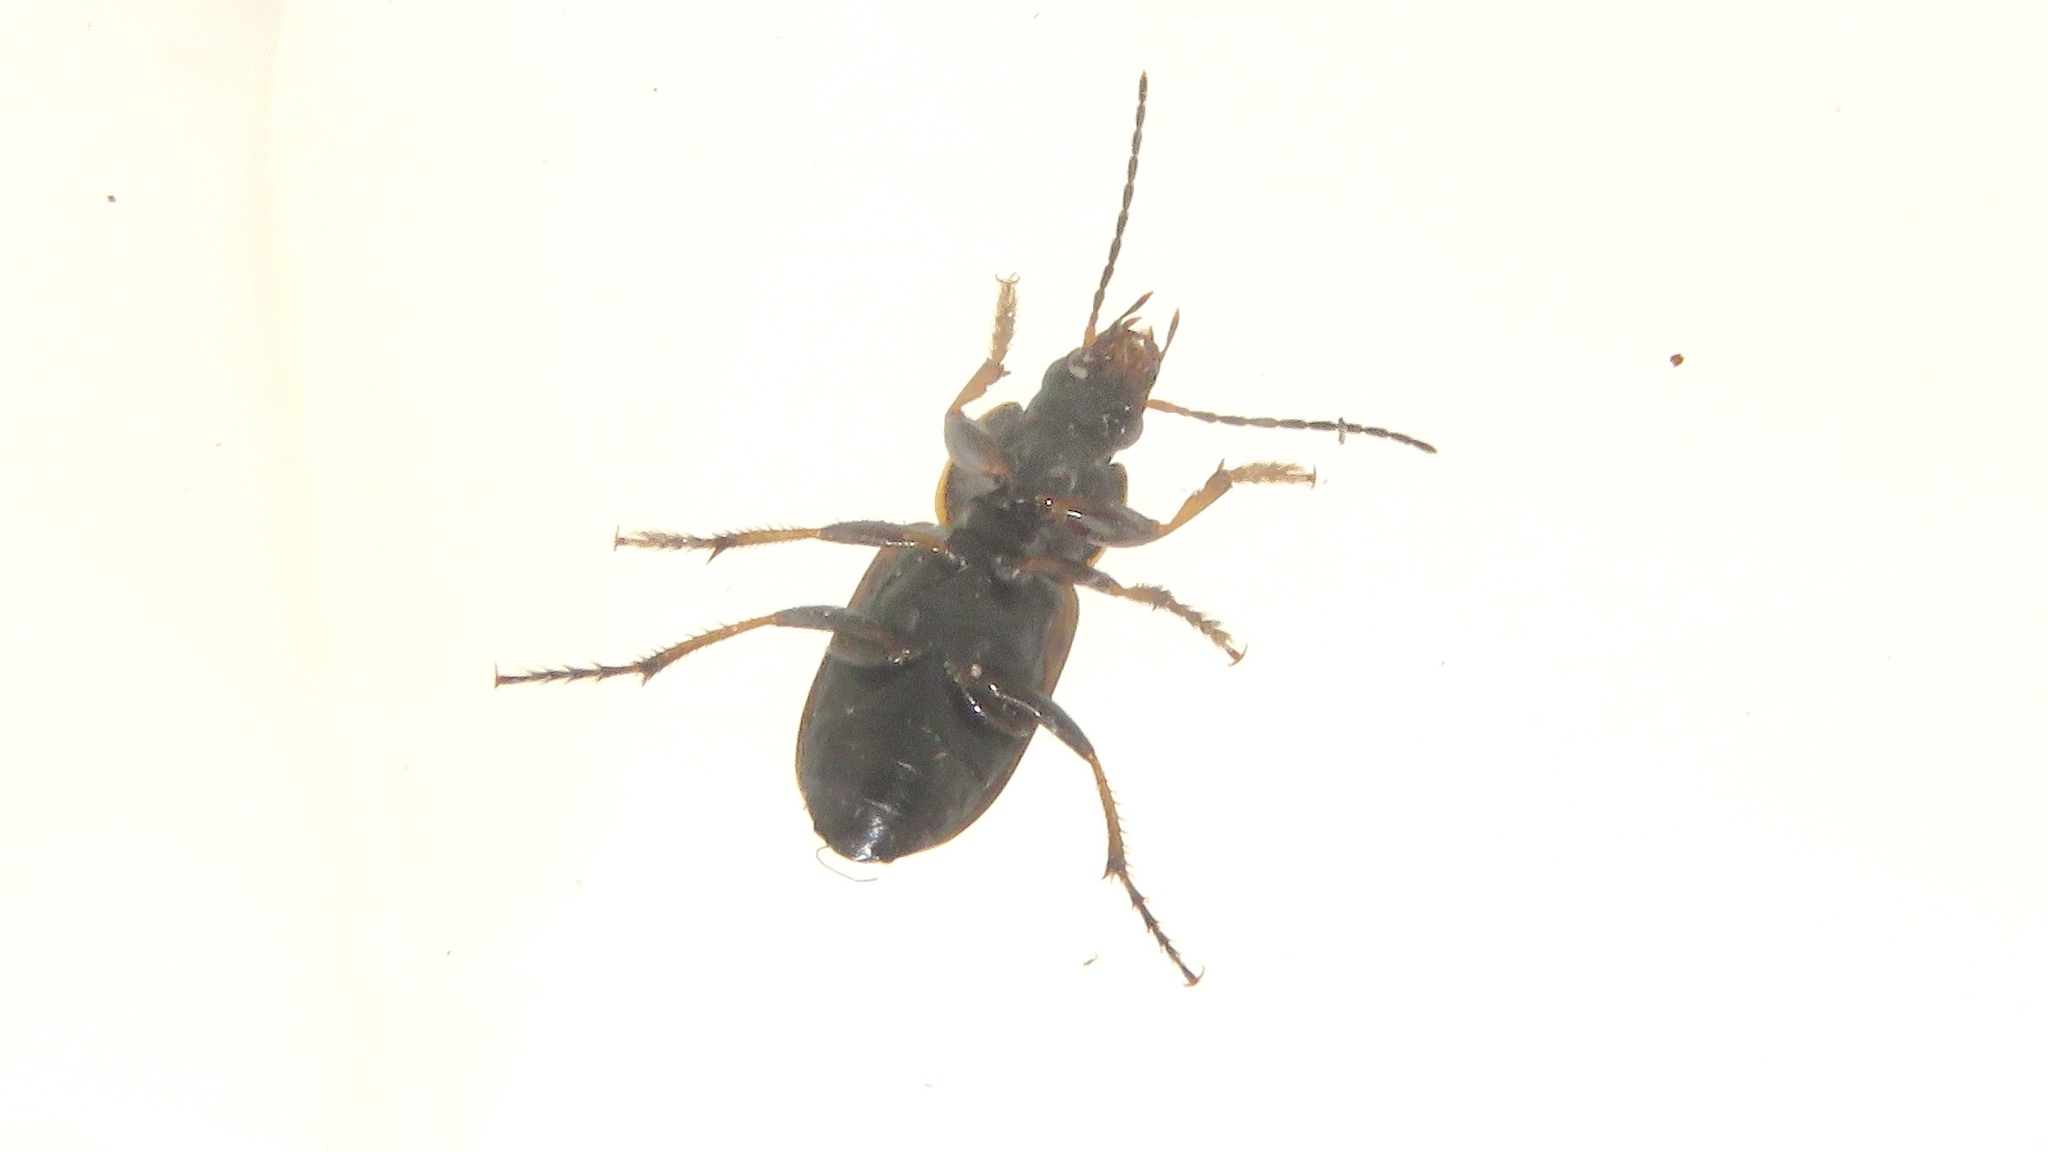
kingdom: Animalia
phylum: Arthropoda
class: Insecta
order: Coleoptera
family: Carabidae
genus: Stenolophus
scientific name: Stenolophus fuliginosus
